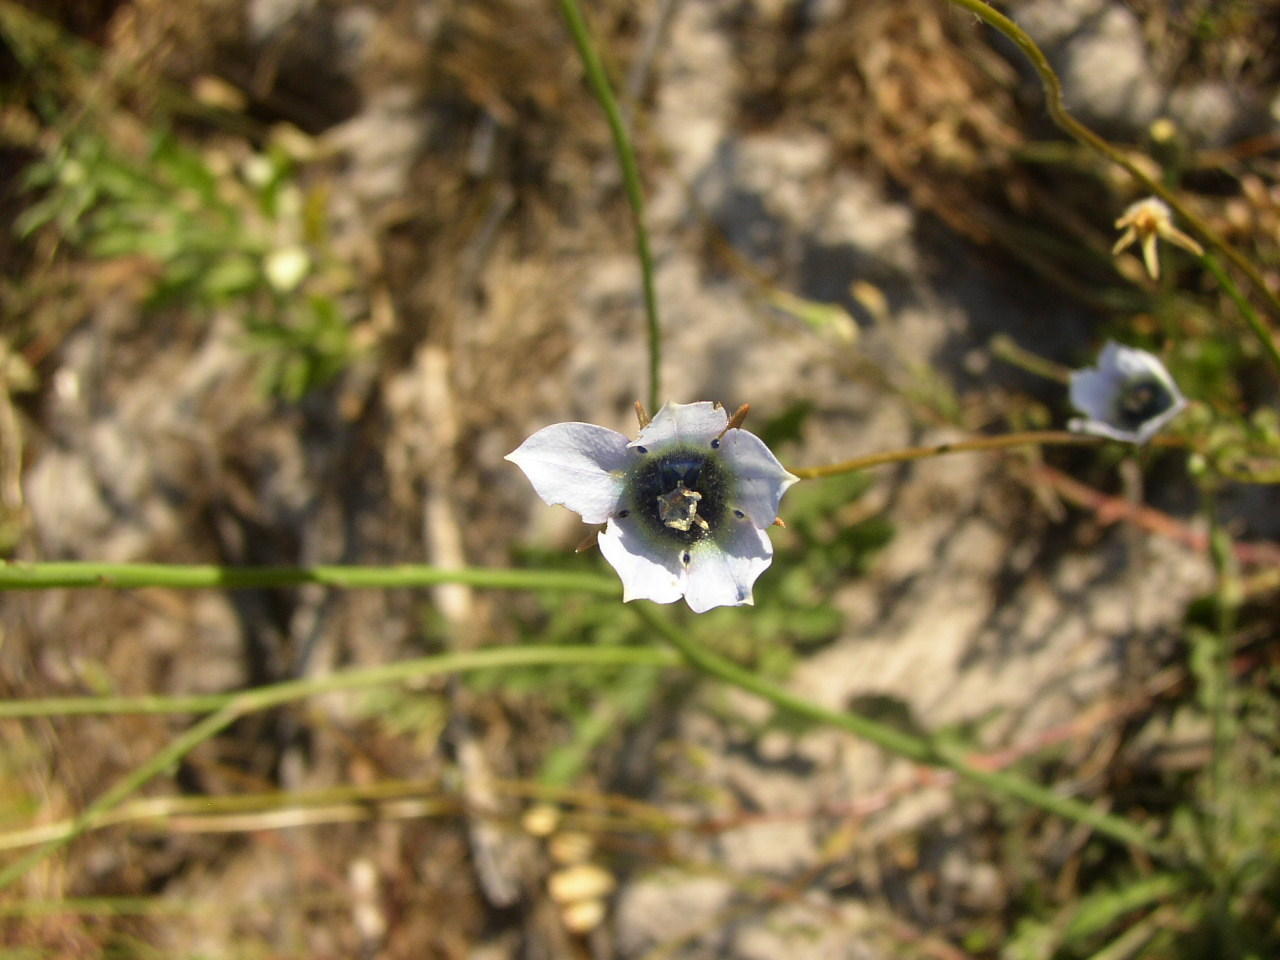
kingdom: Plantae
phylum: Tracheophyta
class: Magnoliopsida
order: Asterales
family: Campanulaceae
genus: Wahlenbergia
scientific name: Wahlenbergia capensis
